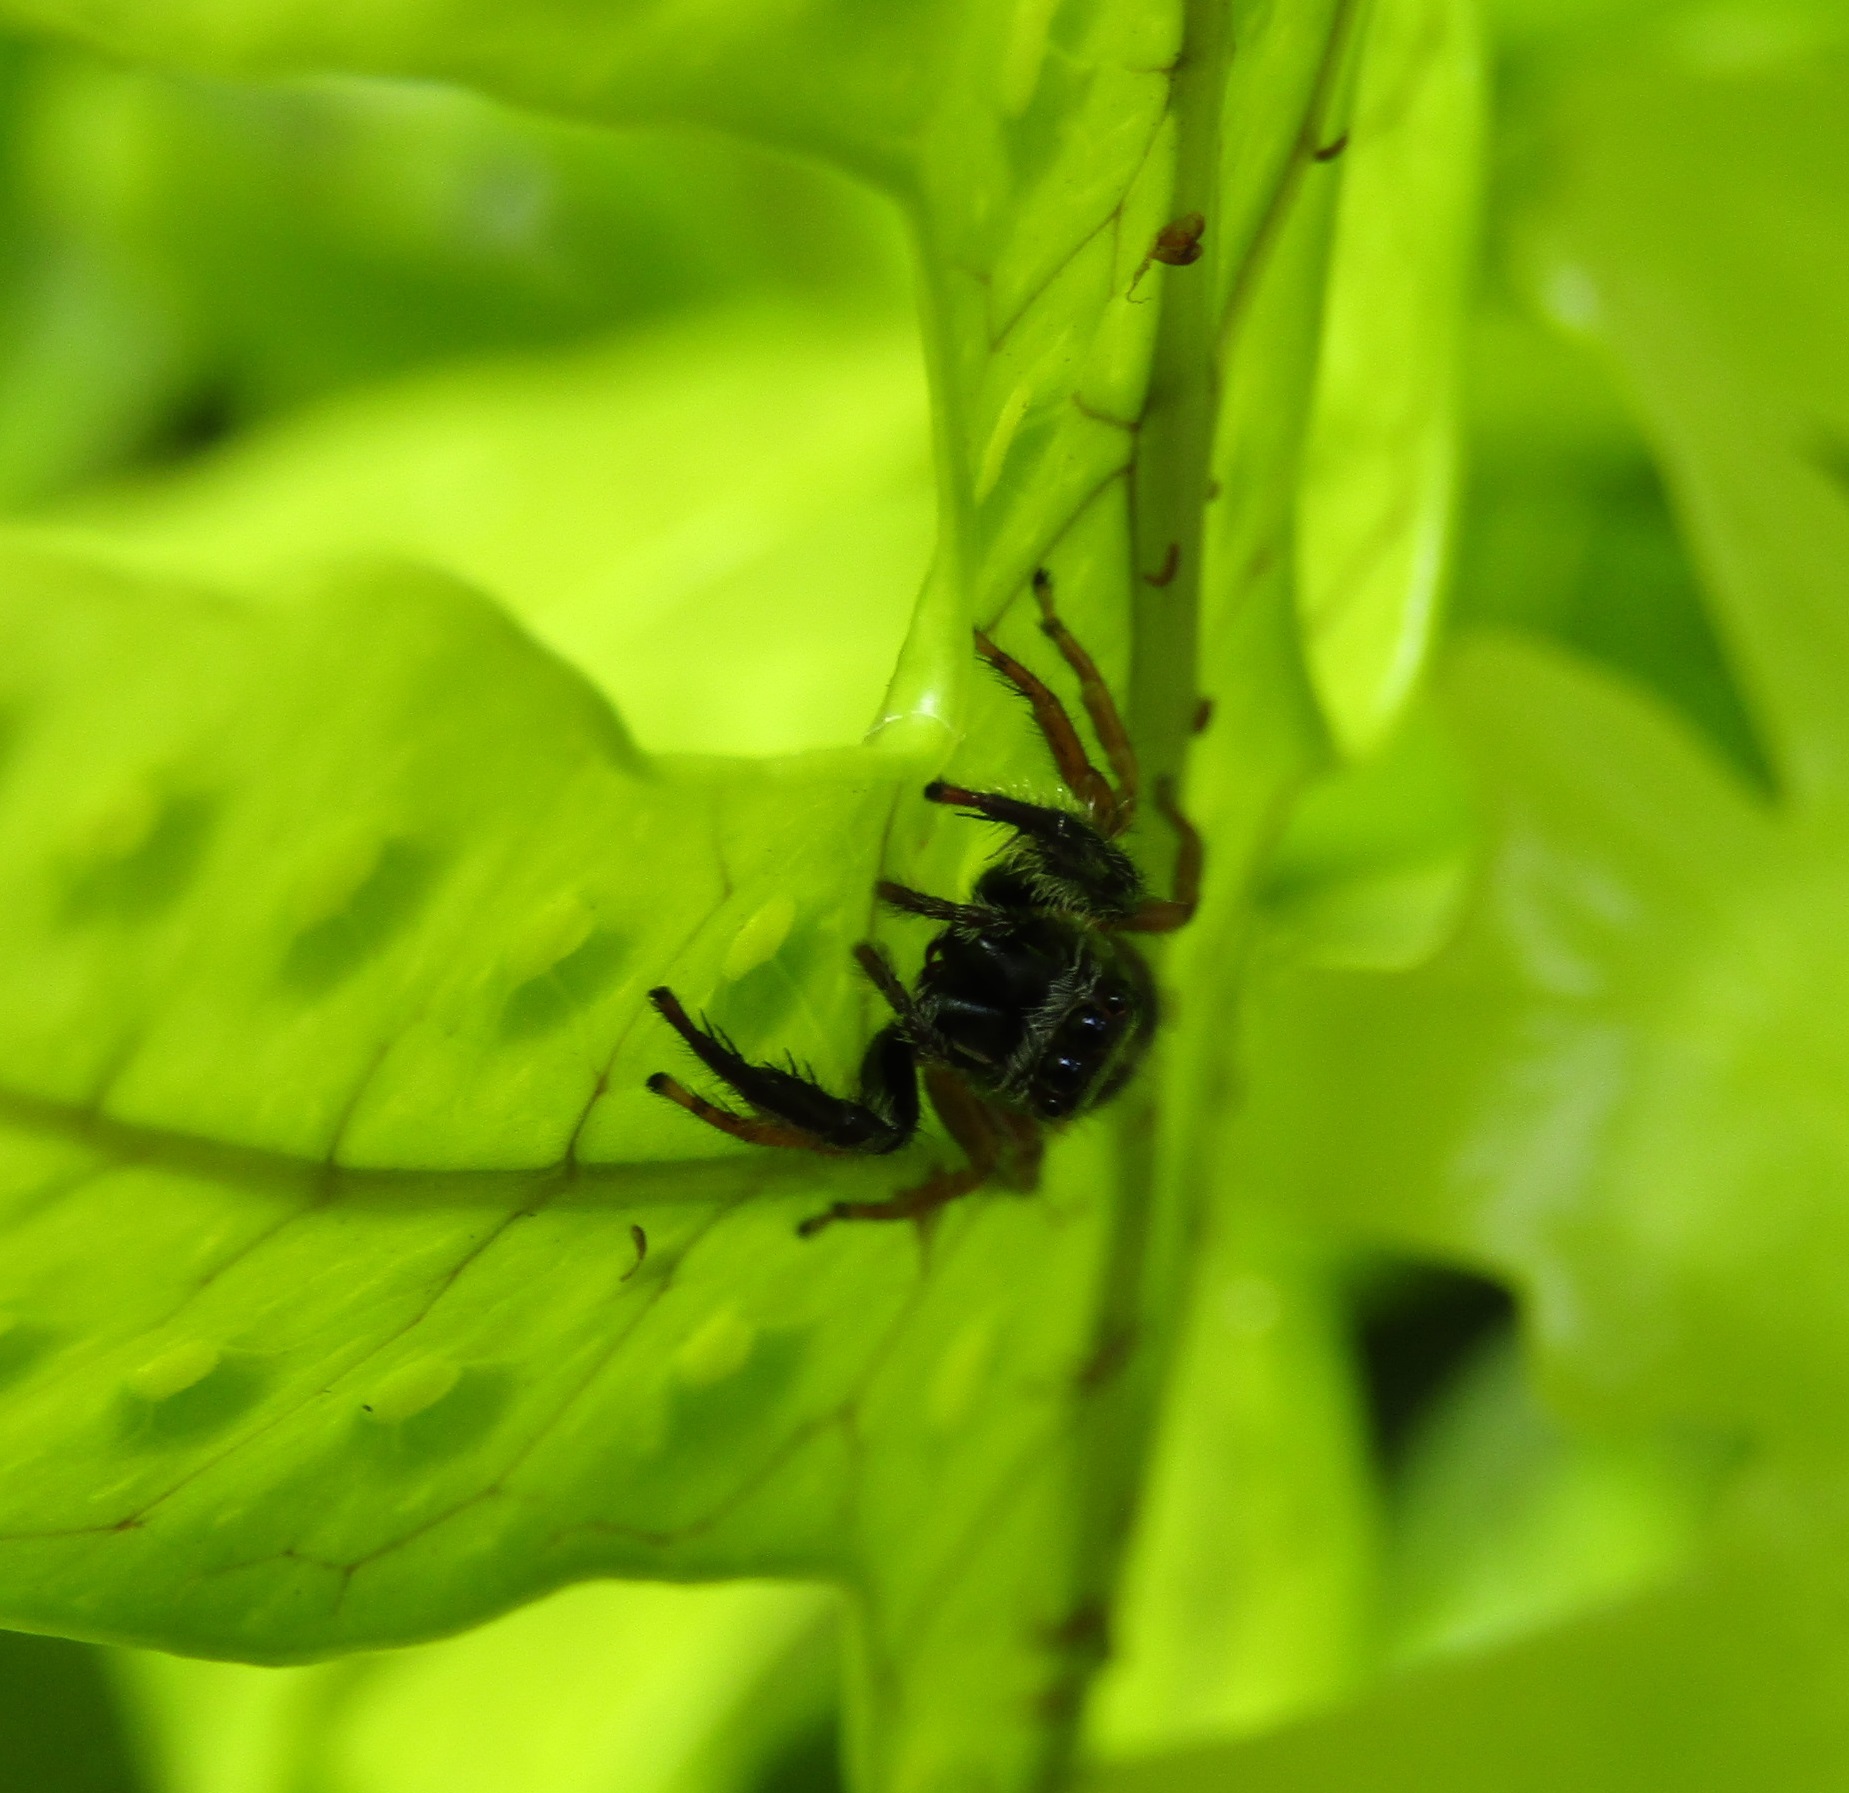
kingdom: Animalia
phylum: Arthropoda
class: Arachnida
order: Araneae
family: Salticidae
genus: Trite
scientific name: Trite planiceps
